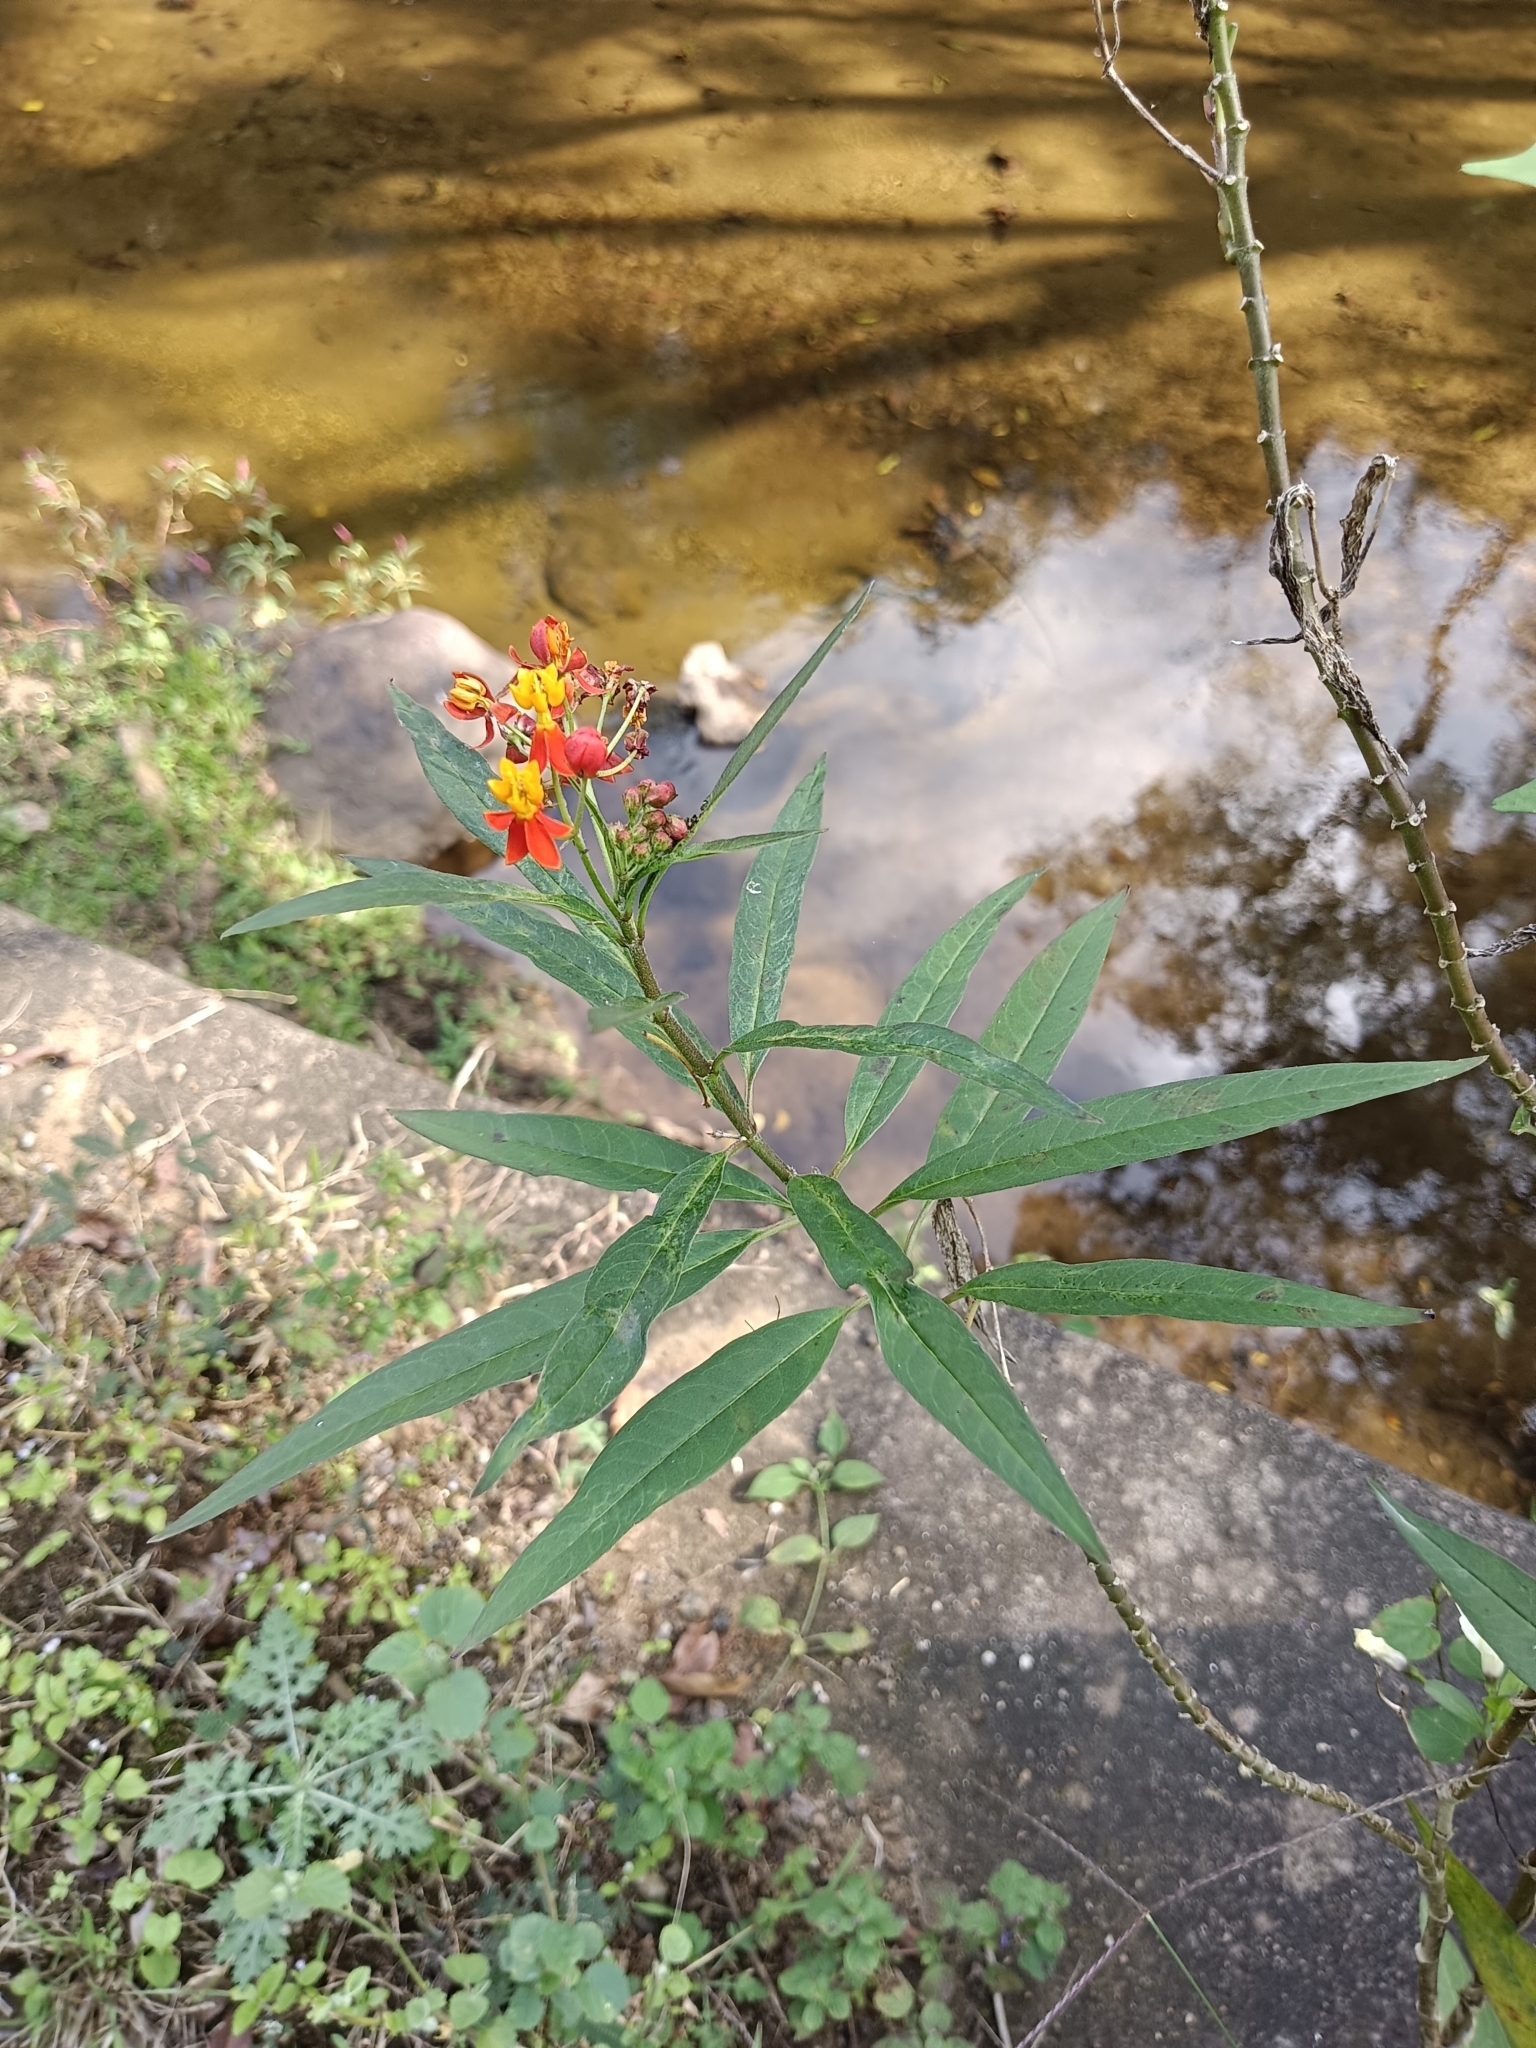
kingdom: Plantae
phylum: Tracheophyta
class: Magnoliopsida
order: Gentianales
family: Apocynaceae
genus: Asclepias
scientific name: Asclepias curassavica
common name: Bloodflower
